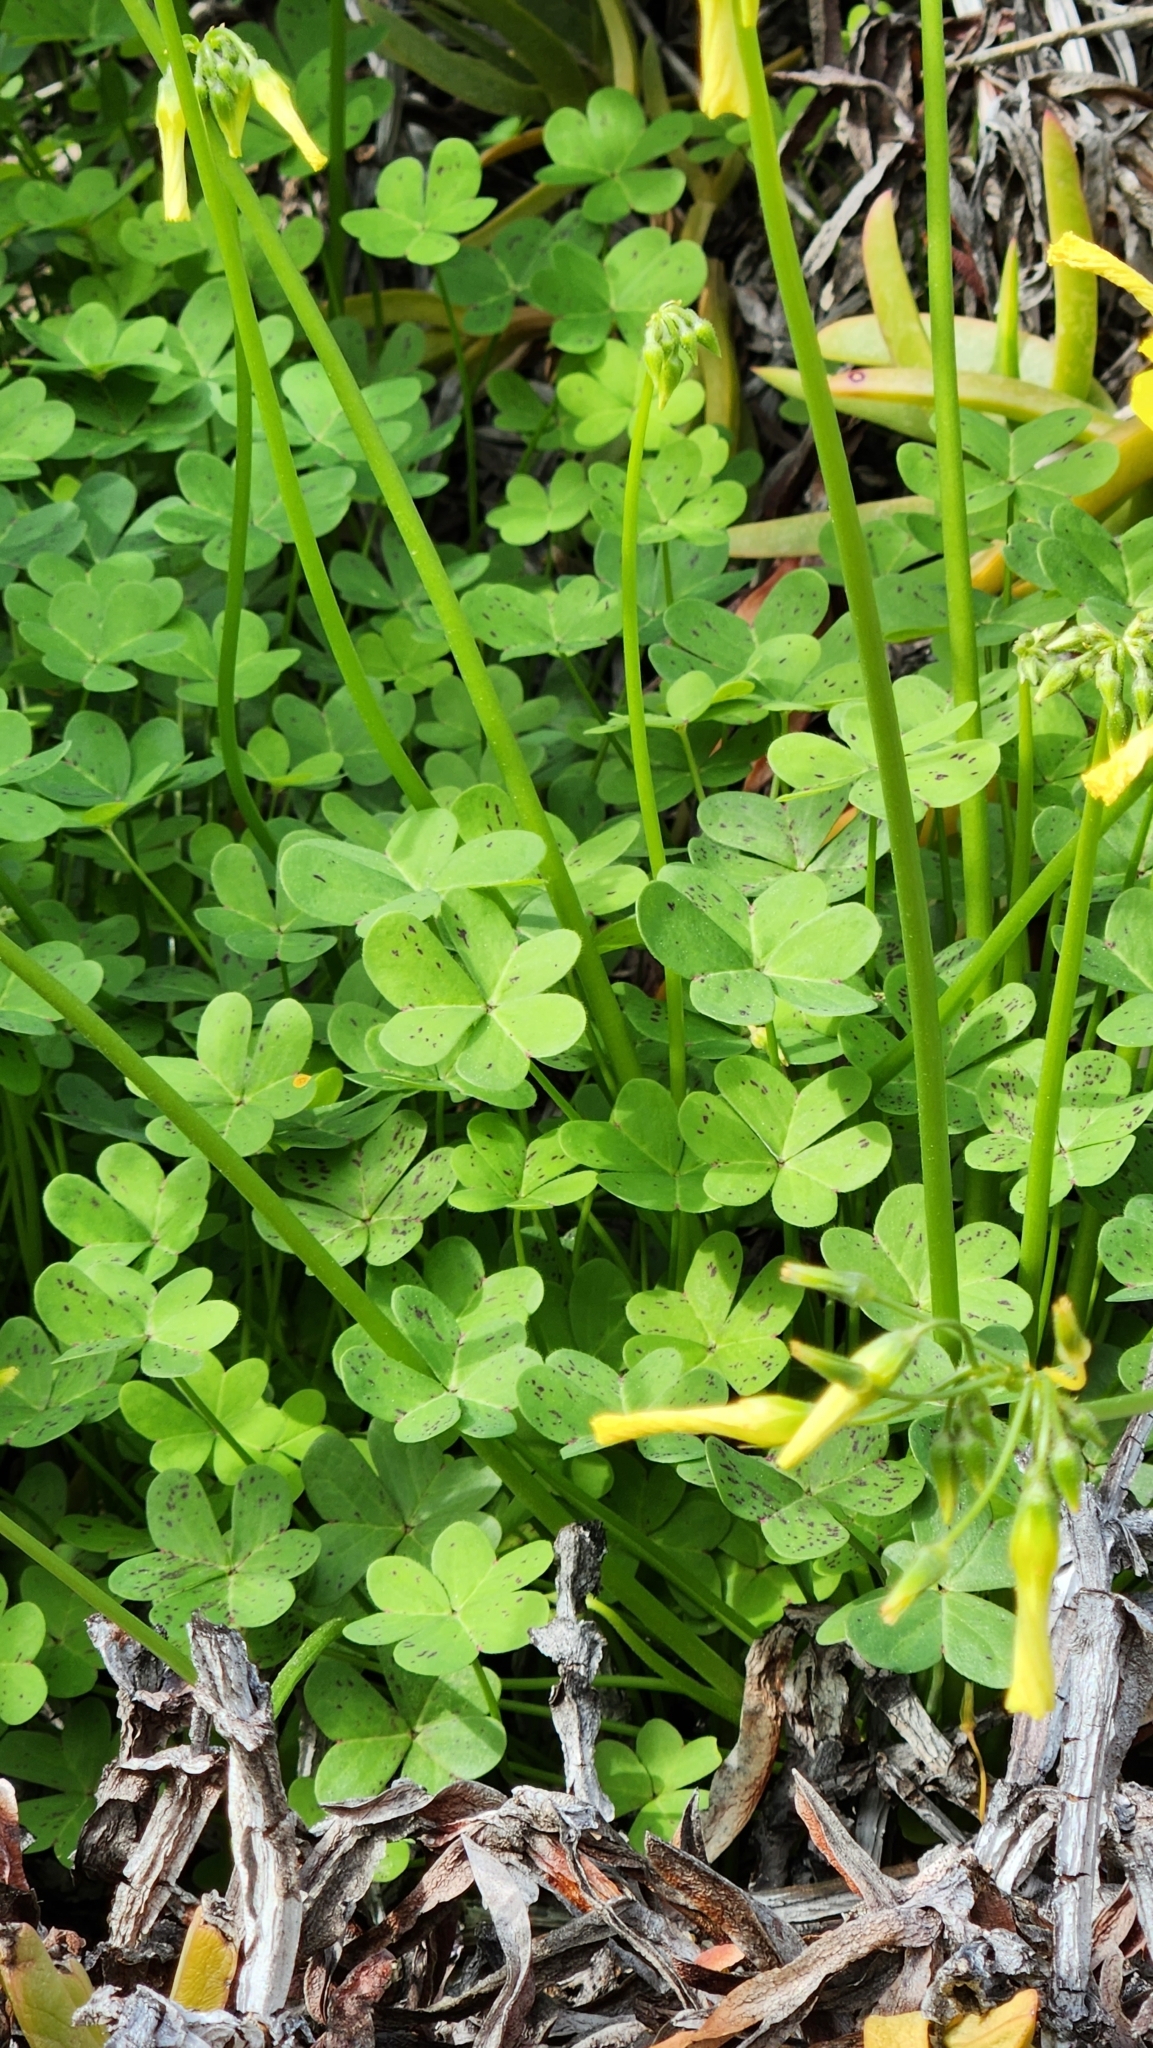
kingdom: Plantae
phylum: Tracheophyta
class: Magnoliopsida
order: Oxalidales
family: Oxalidaceae
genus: Oxalis
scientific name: Oxalis pes-caprae
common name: Bermuda-buttercup
